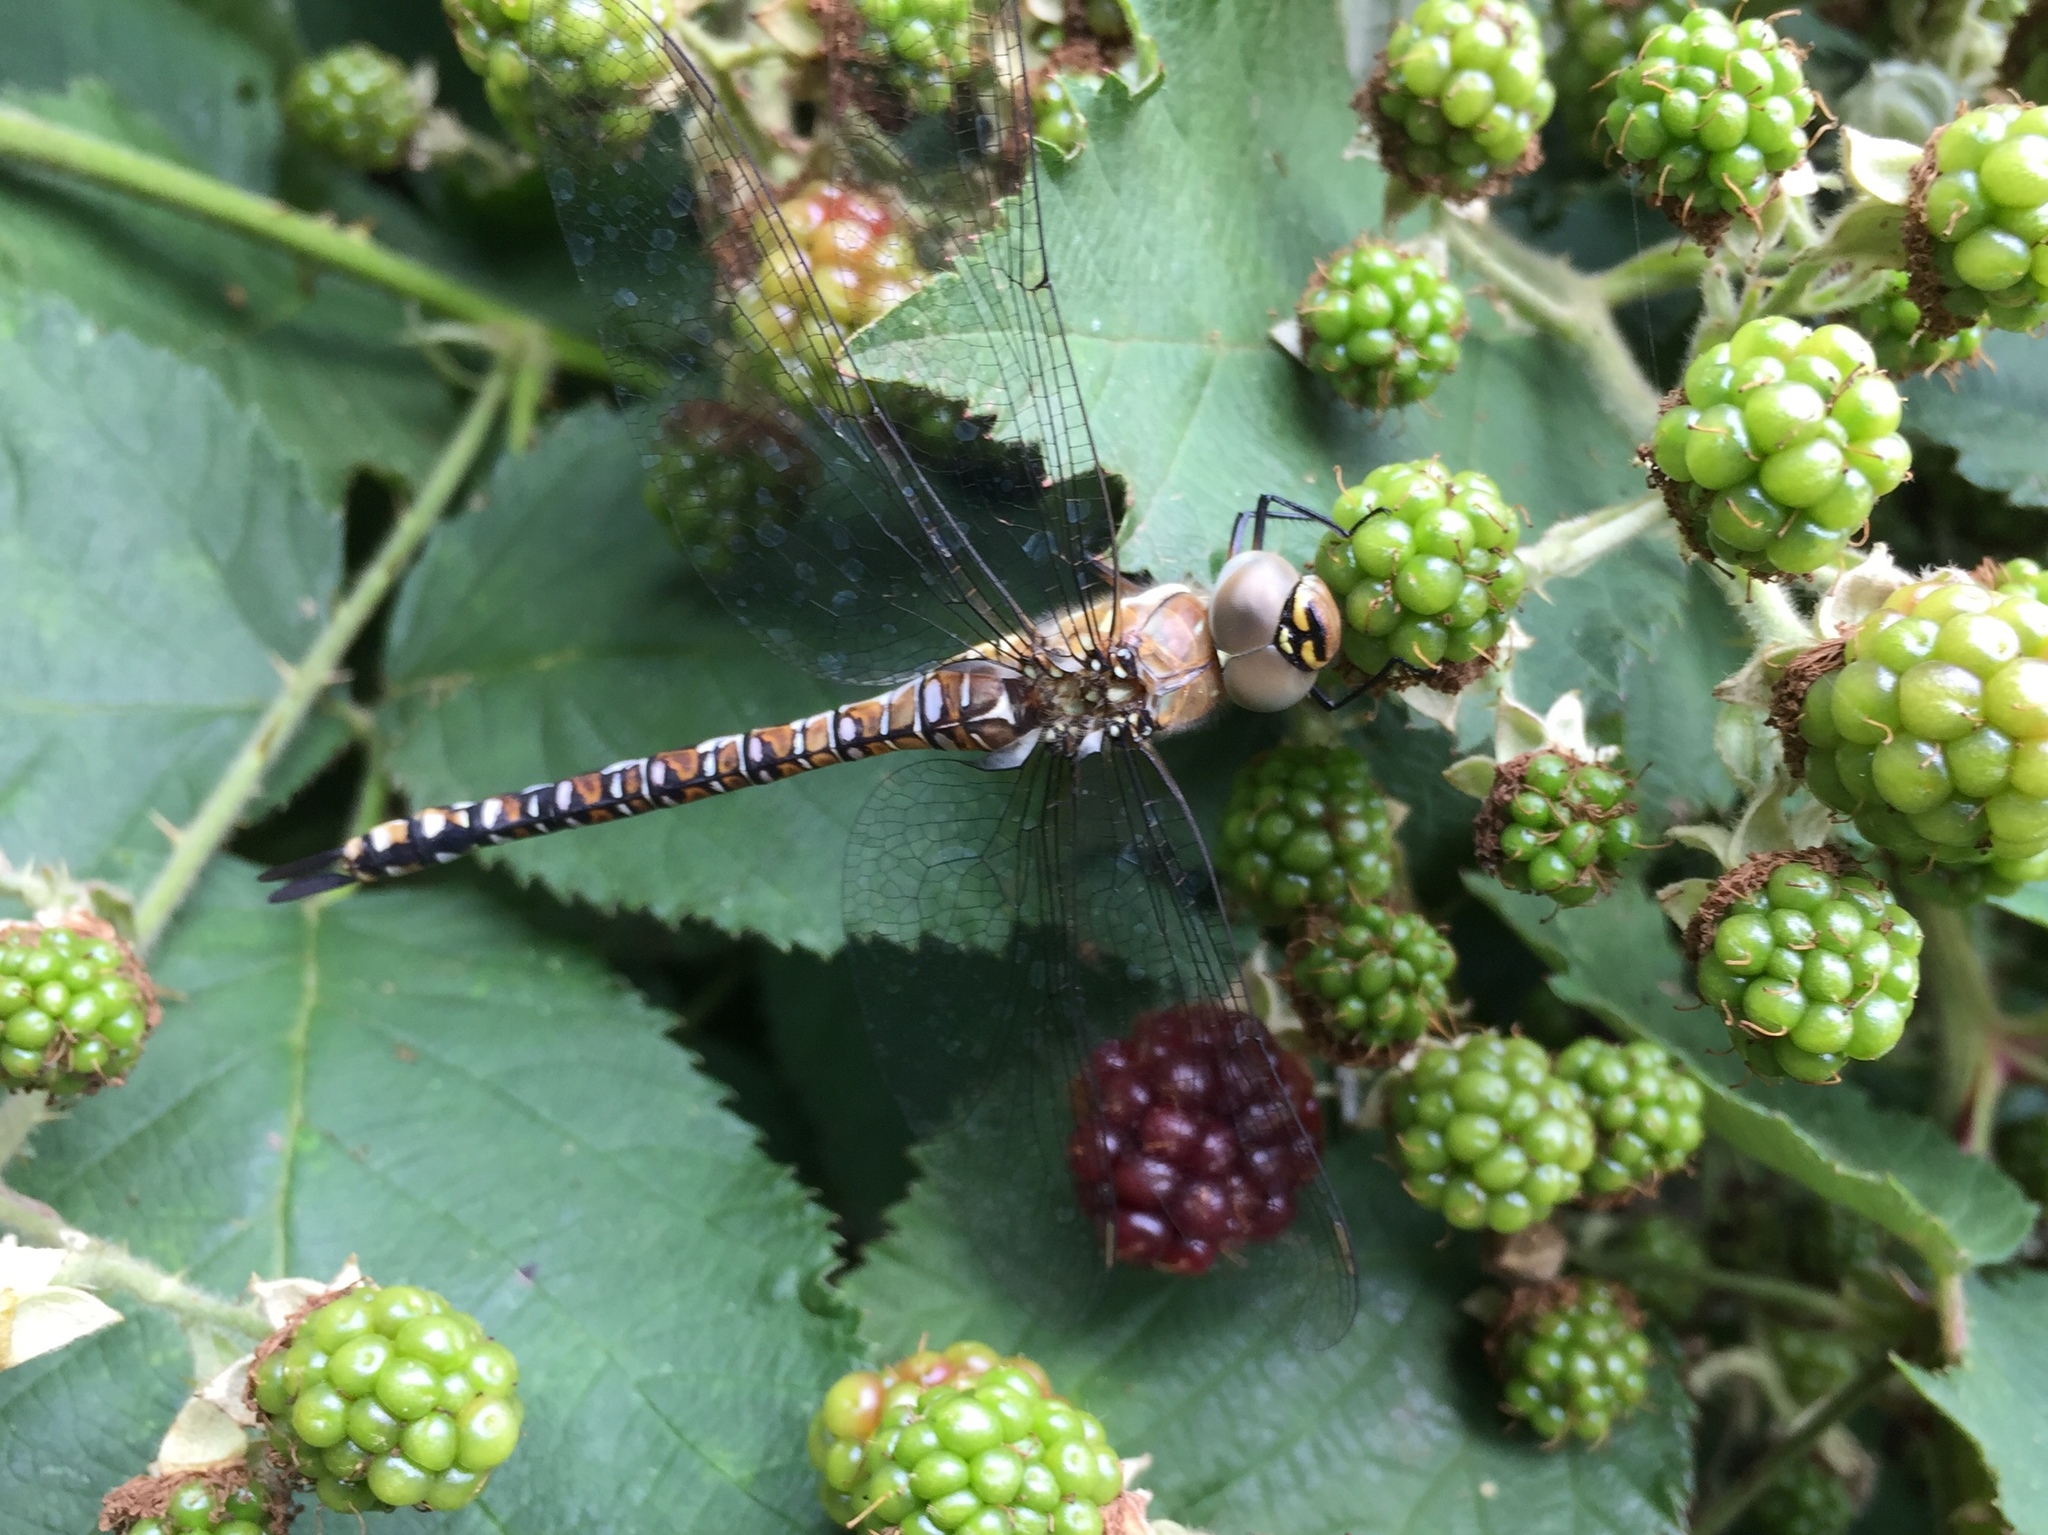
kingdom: Animalia
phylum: Arthropoda
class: Insecta
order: Odonata
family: Aeshnidae
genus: Aeshna
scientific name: Aeshna mixta
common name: Migrant hawker
